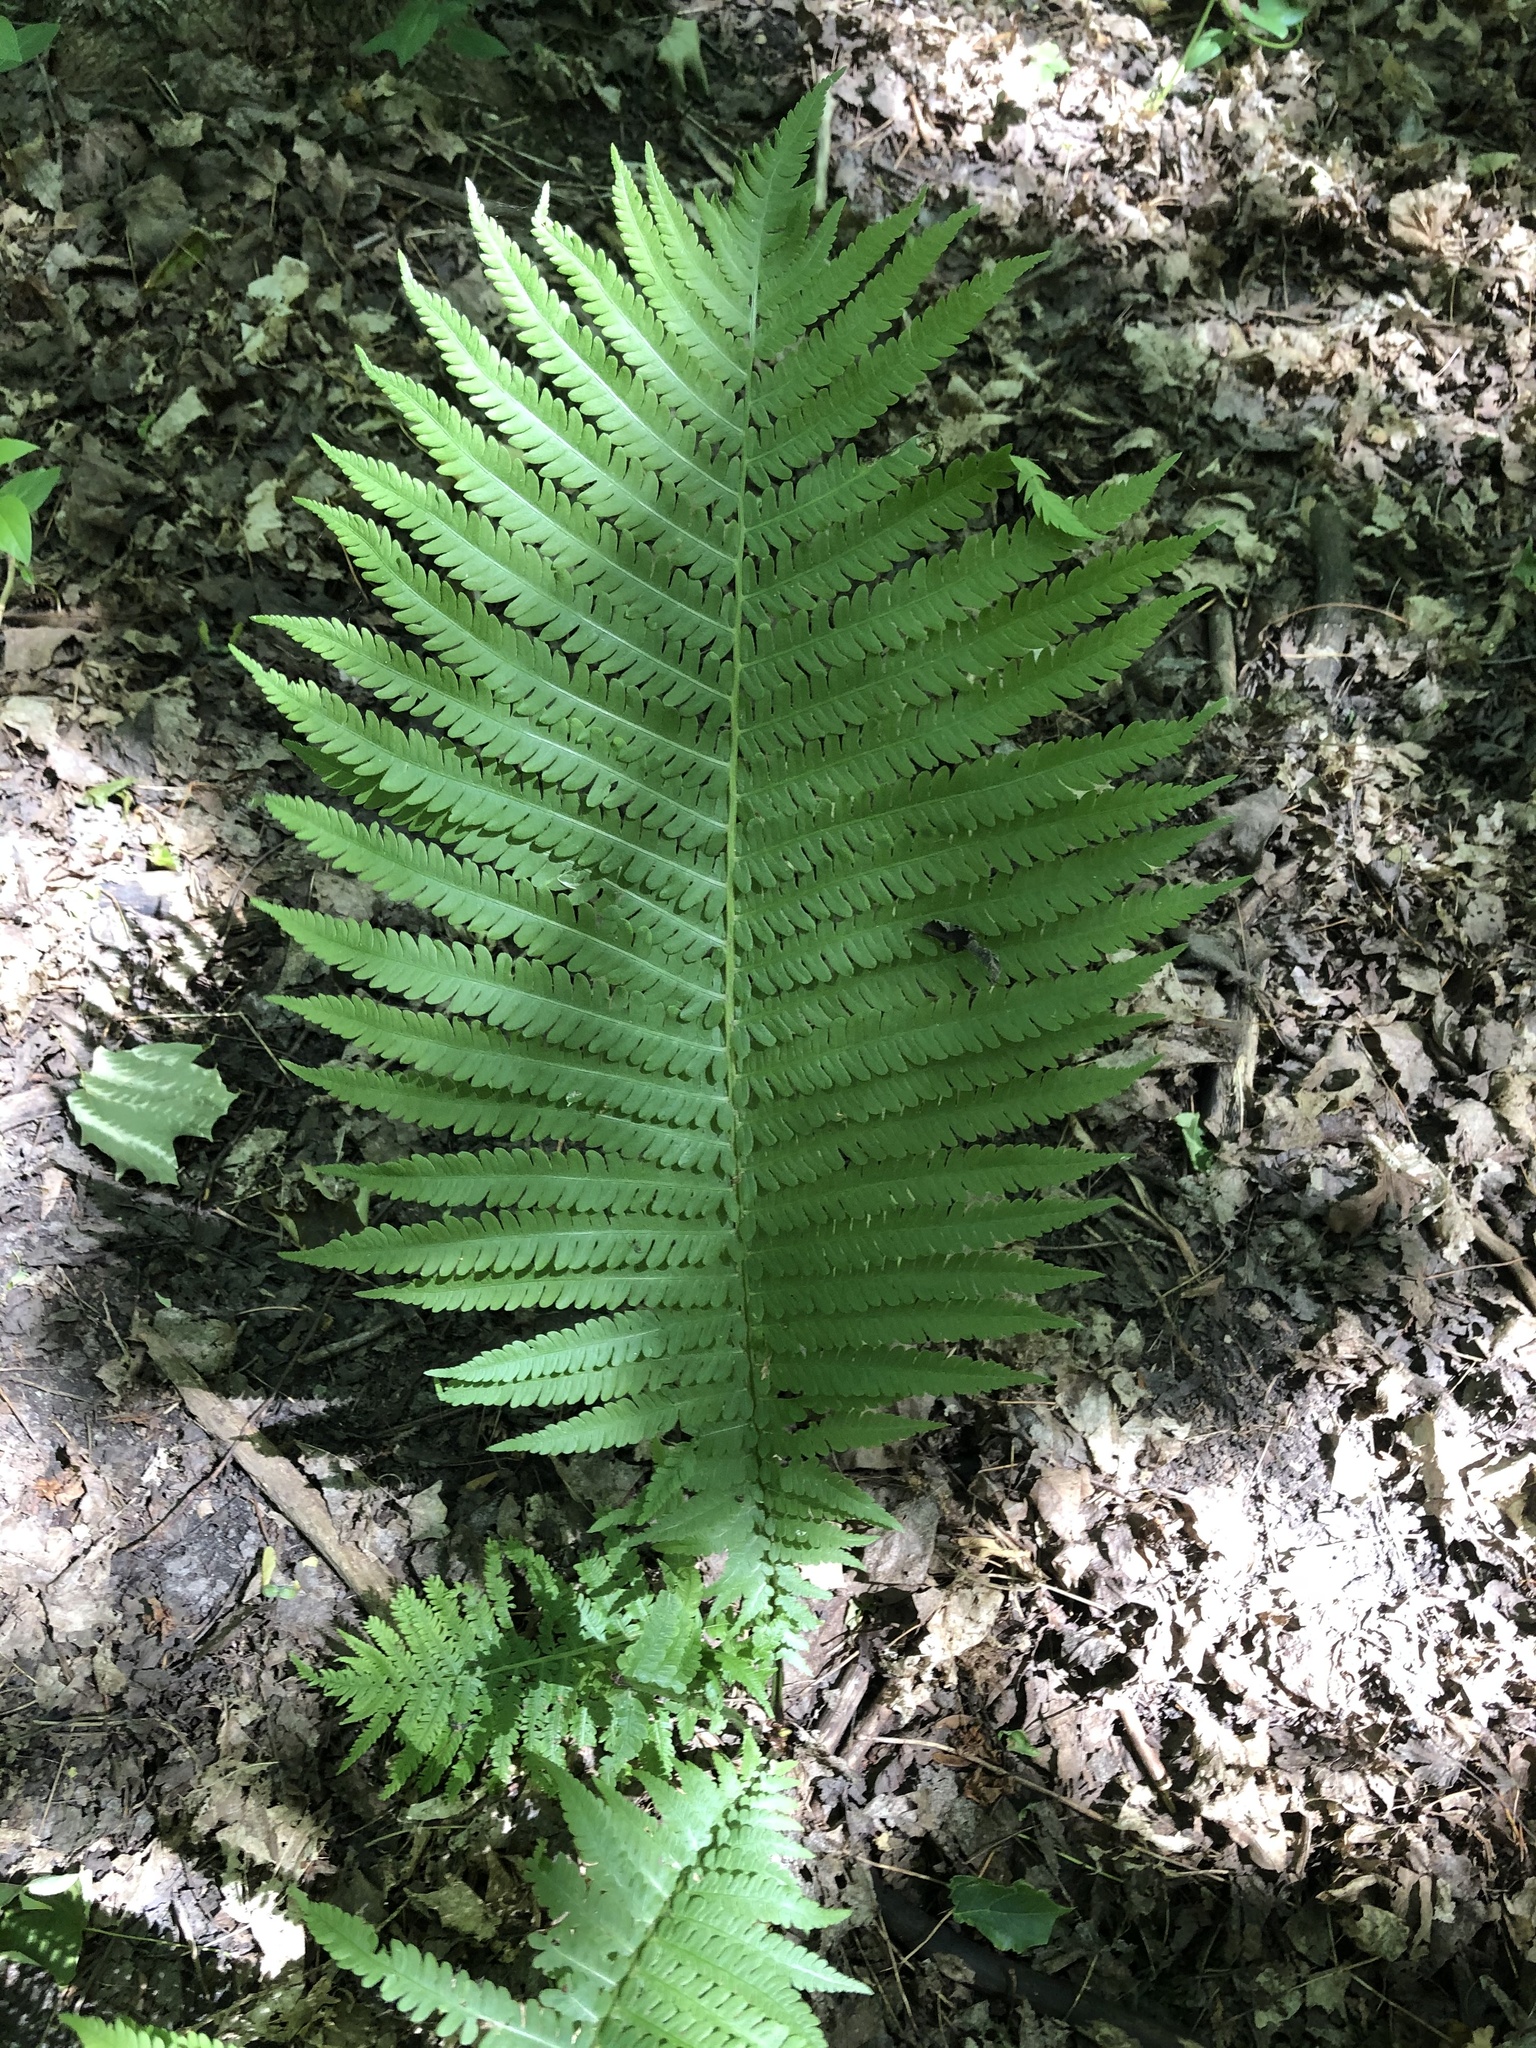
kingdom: Plantae
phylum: Tracheophyta
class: Polypodiopsida
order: Polypodiales
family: Onocleaceae
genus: Matteuccia
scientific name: Matteuccia struthiopteris
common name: Ostrich fern
